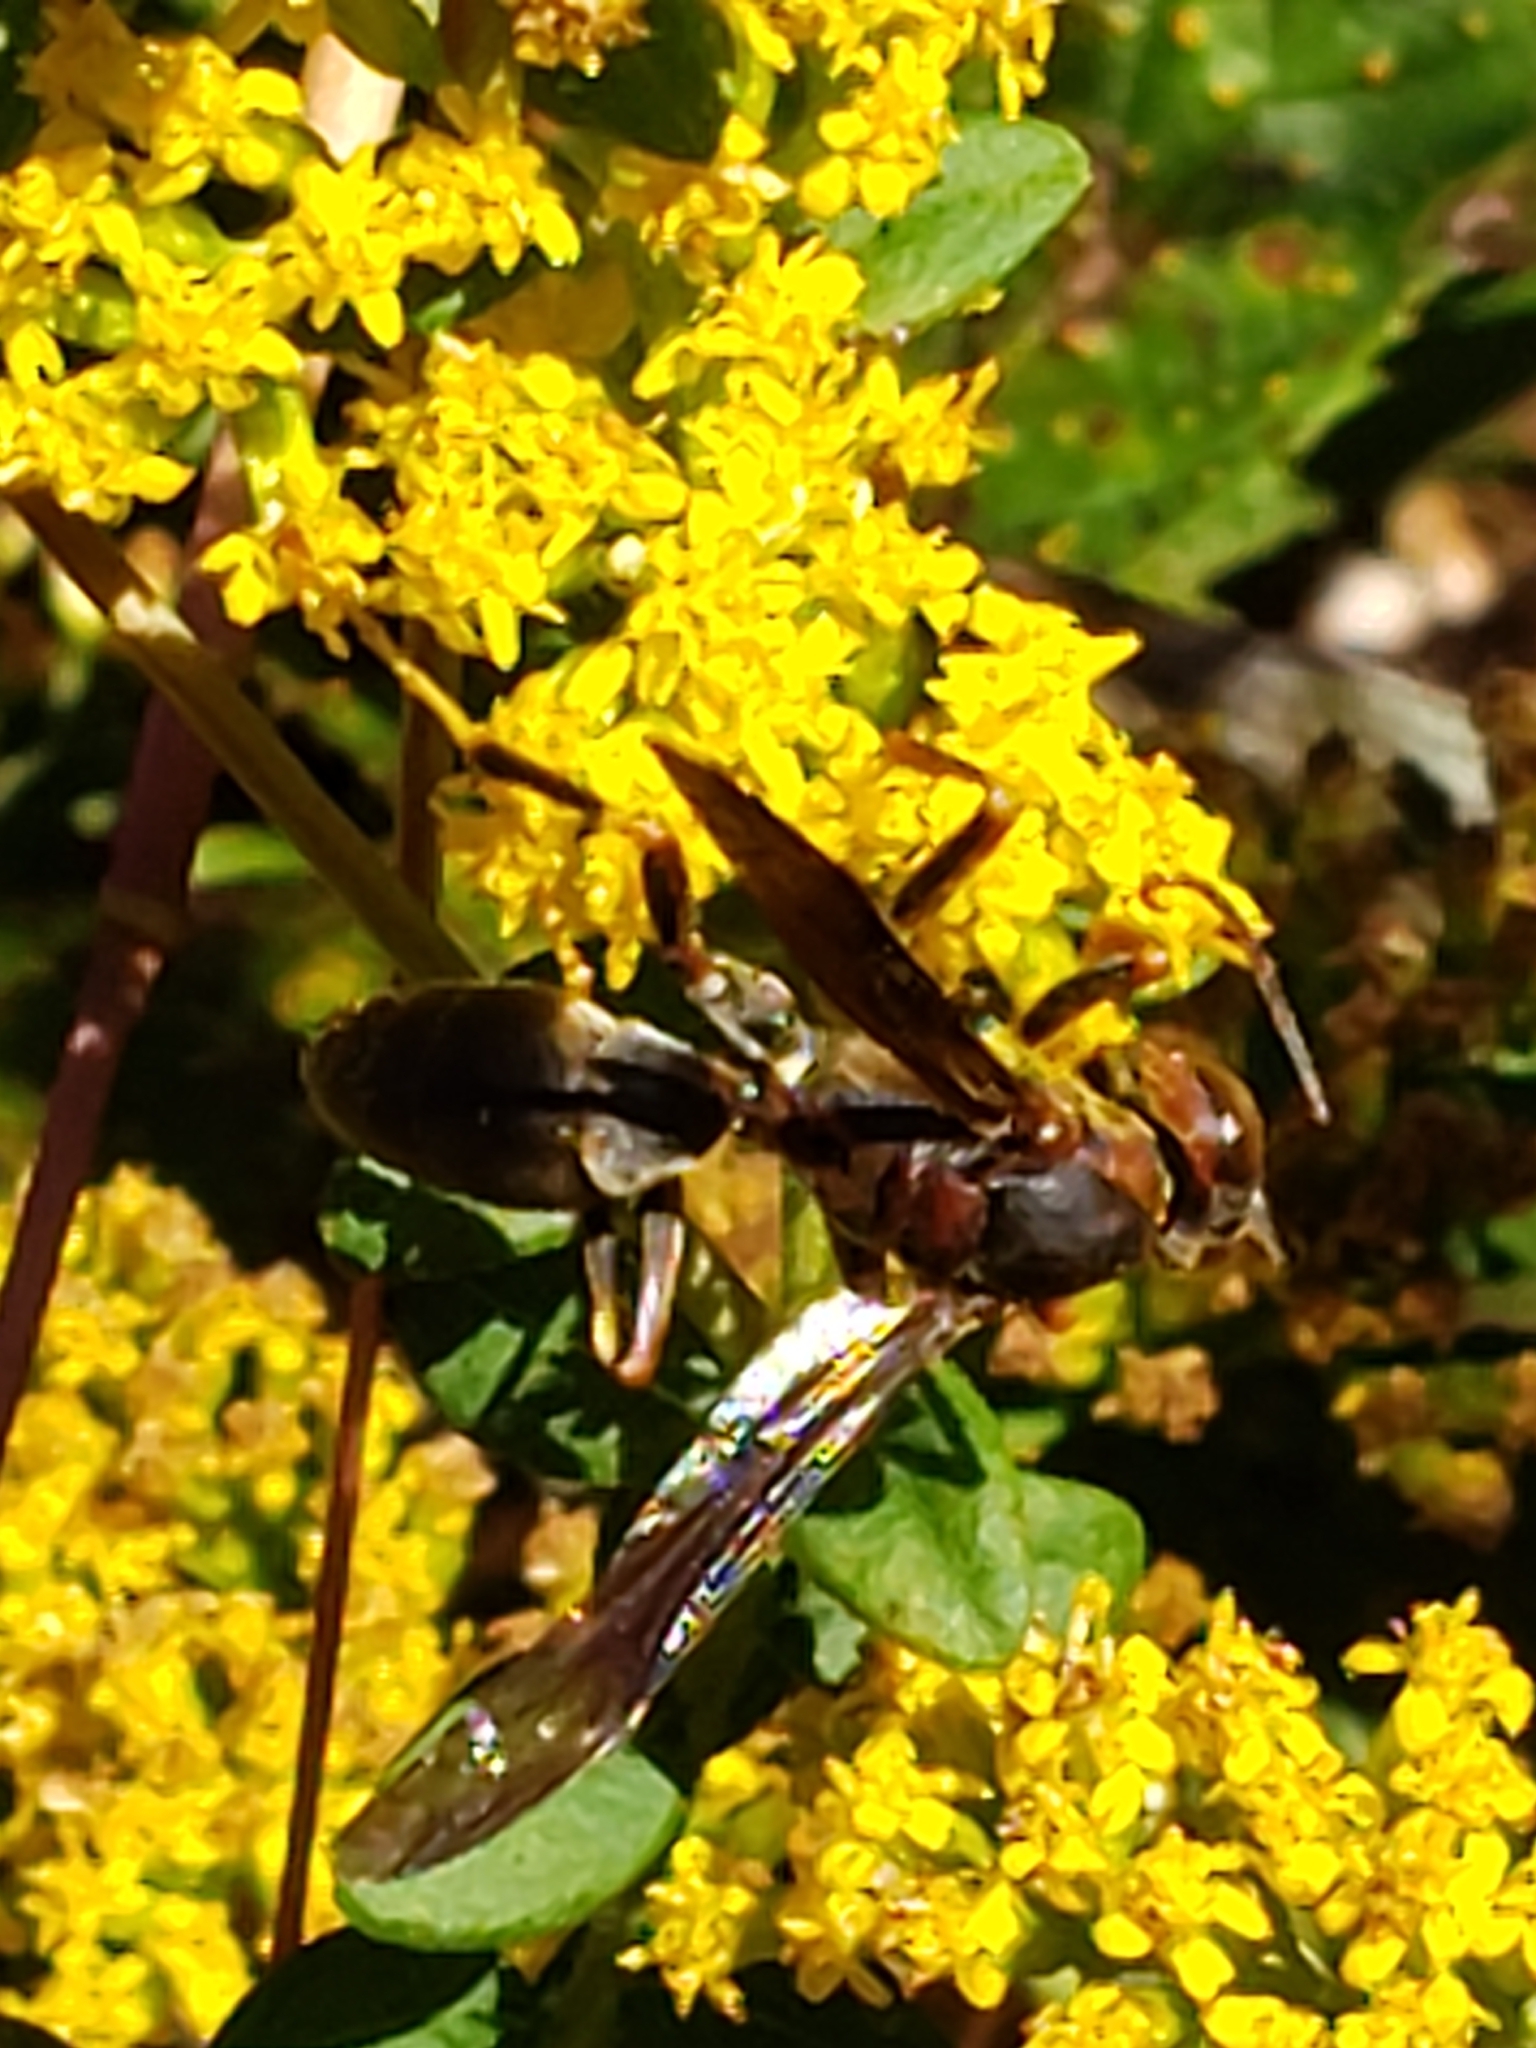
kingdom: Animalia
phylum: Arthropoda
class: Insecta
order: Hymenoptera
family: Eumenidae
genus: Polistes
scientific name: Polistes metricus
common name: Metric paper wasp
